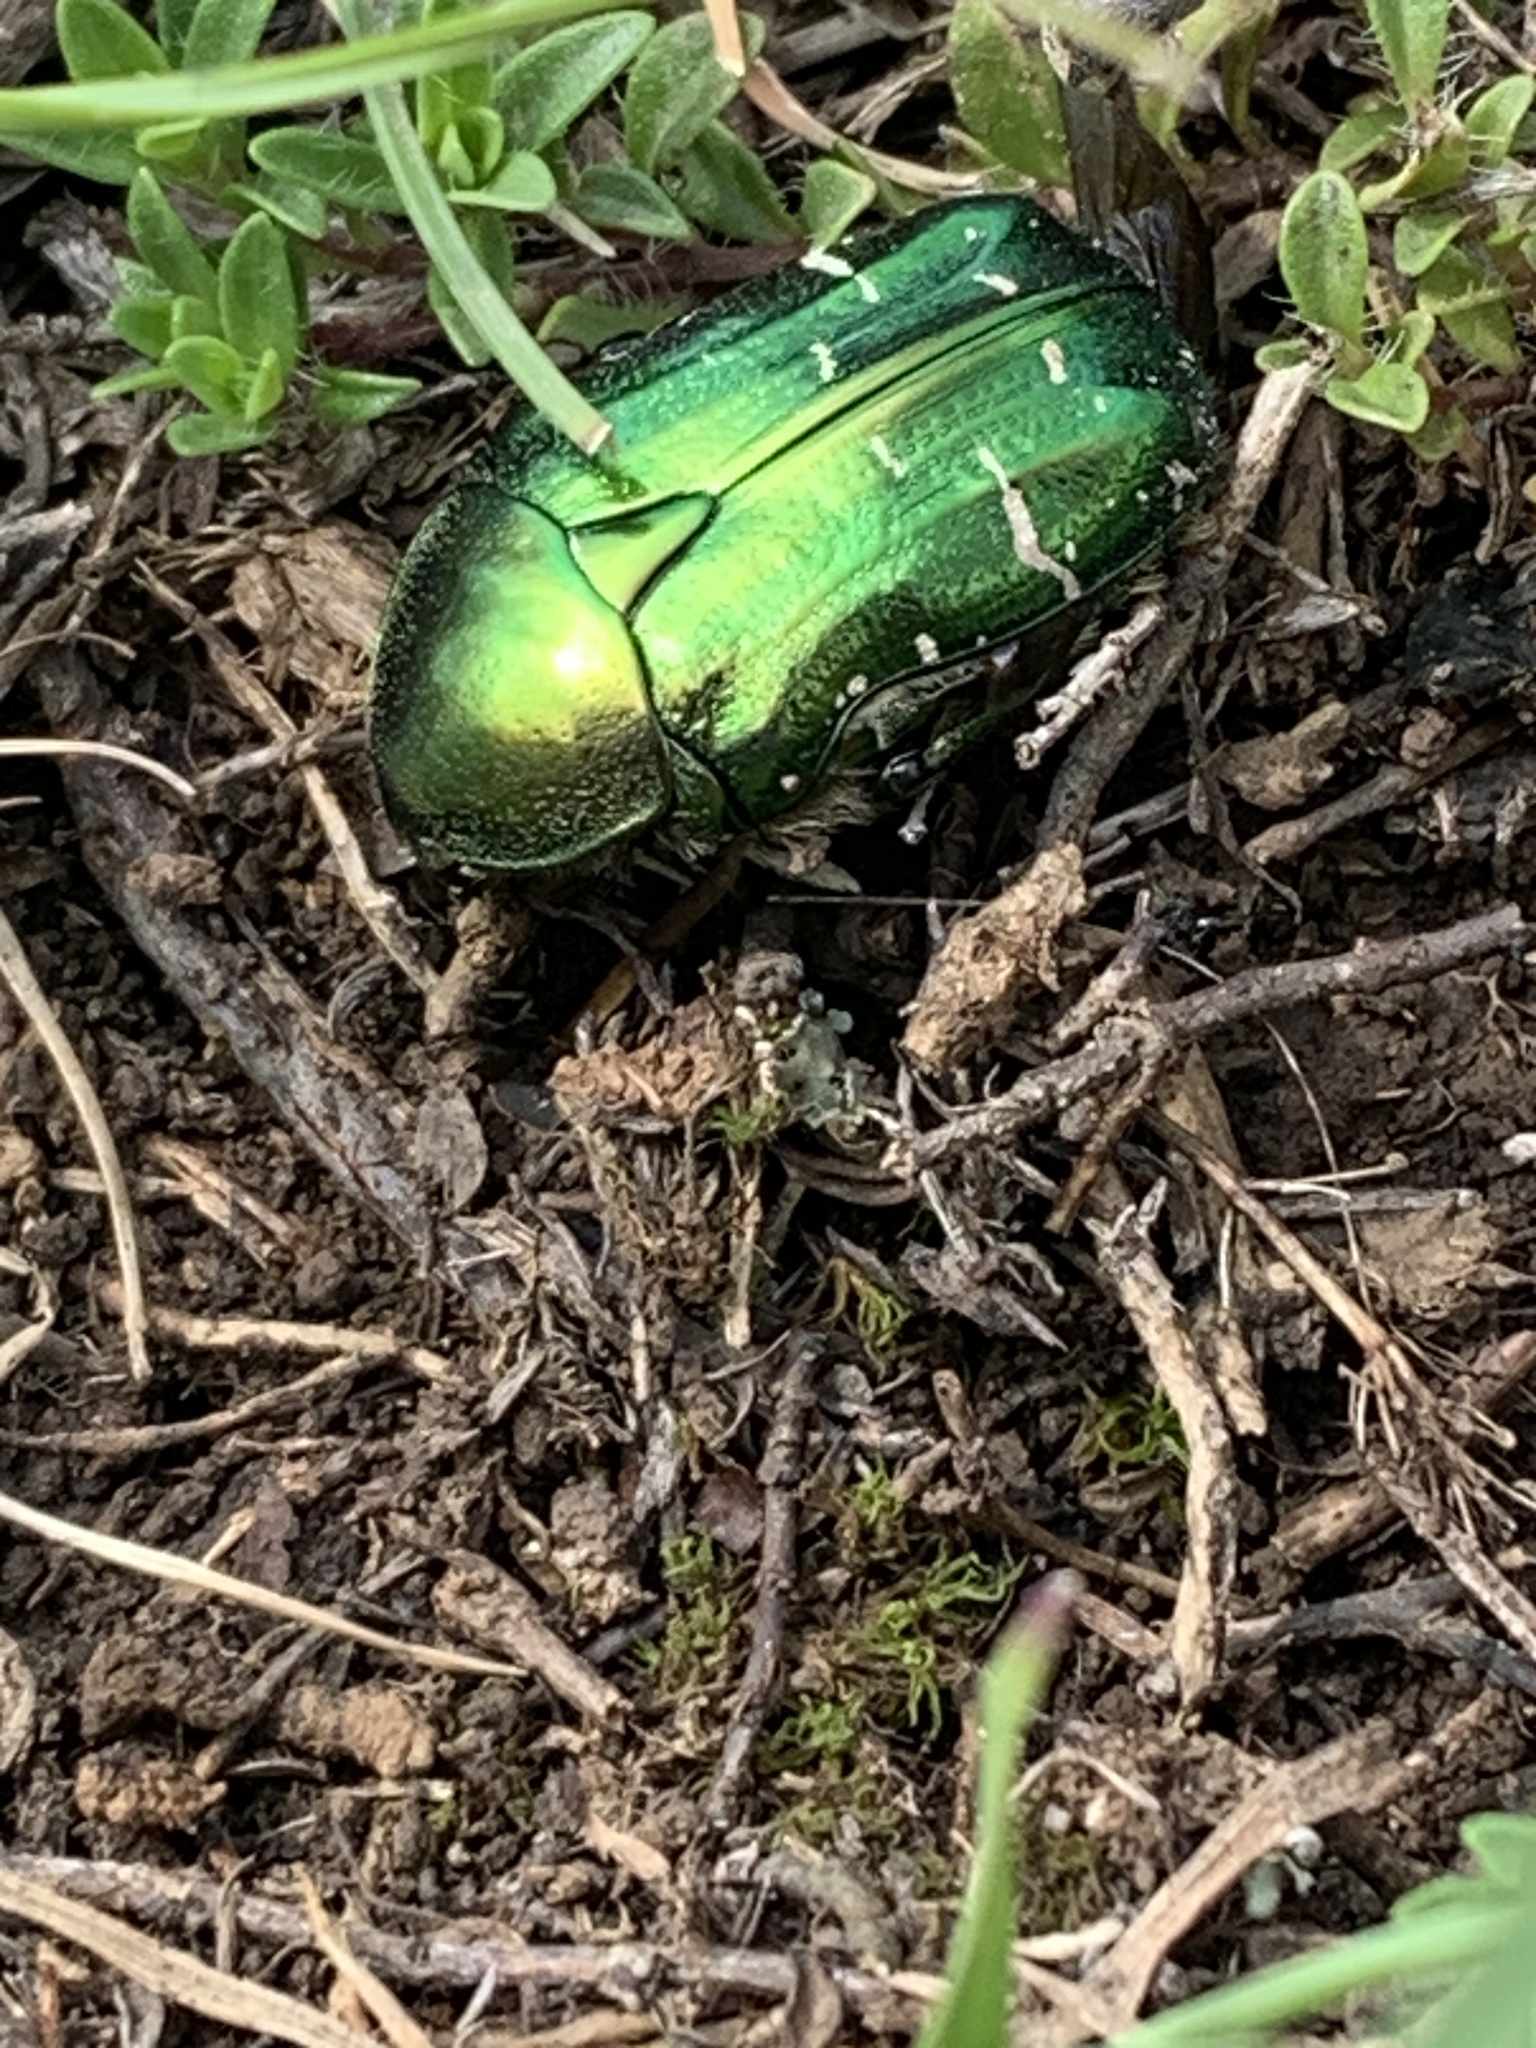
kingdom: Animalia
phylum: Arthropoda
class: Insecta
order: Coleoptera
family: Scarabaeidae
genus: Cetonia
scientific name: Cetonia aurata
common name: Rose chafer
